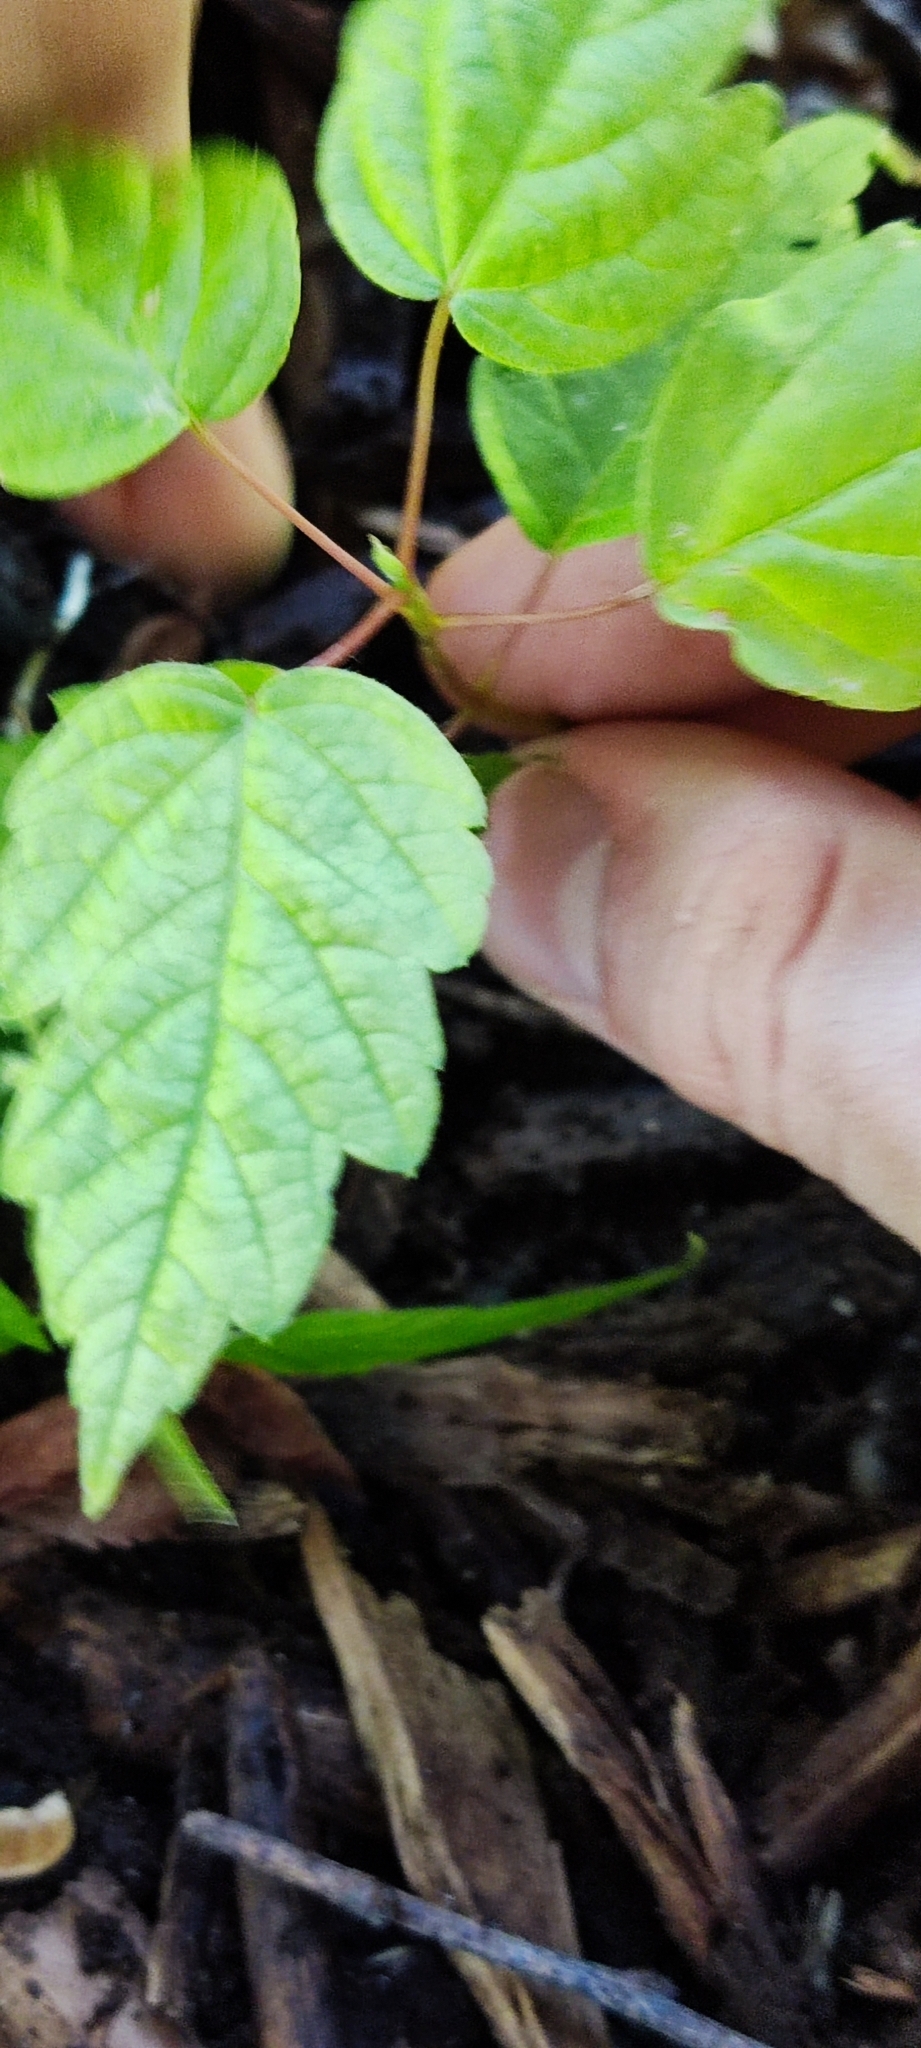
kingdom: Plantae
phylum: Tracheophyta
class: Magnoliopsida
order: Sapindales
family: Sapindaceae
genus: Acer
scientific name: Acer negundo
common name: Ashleaf maple
